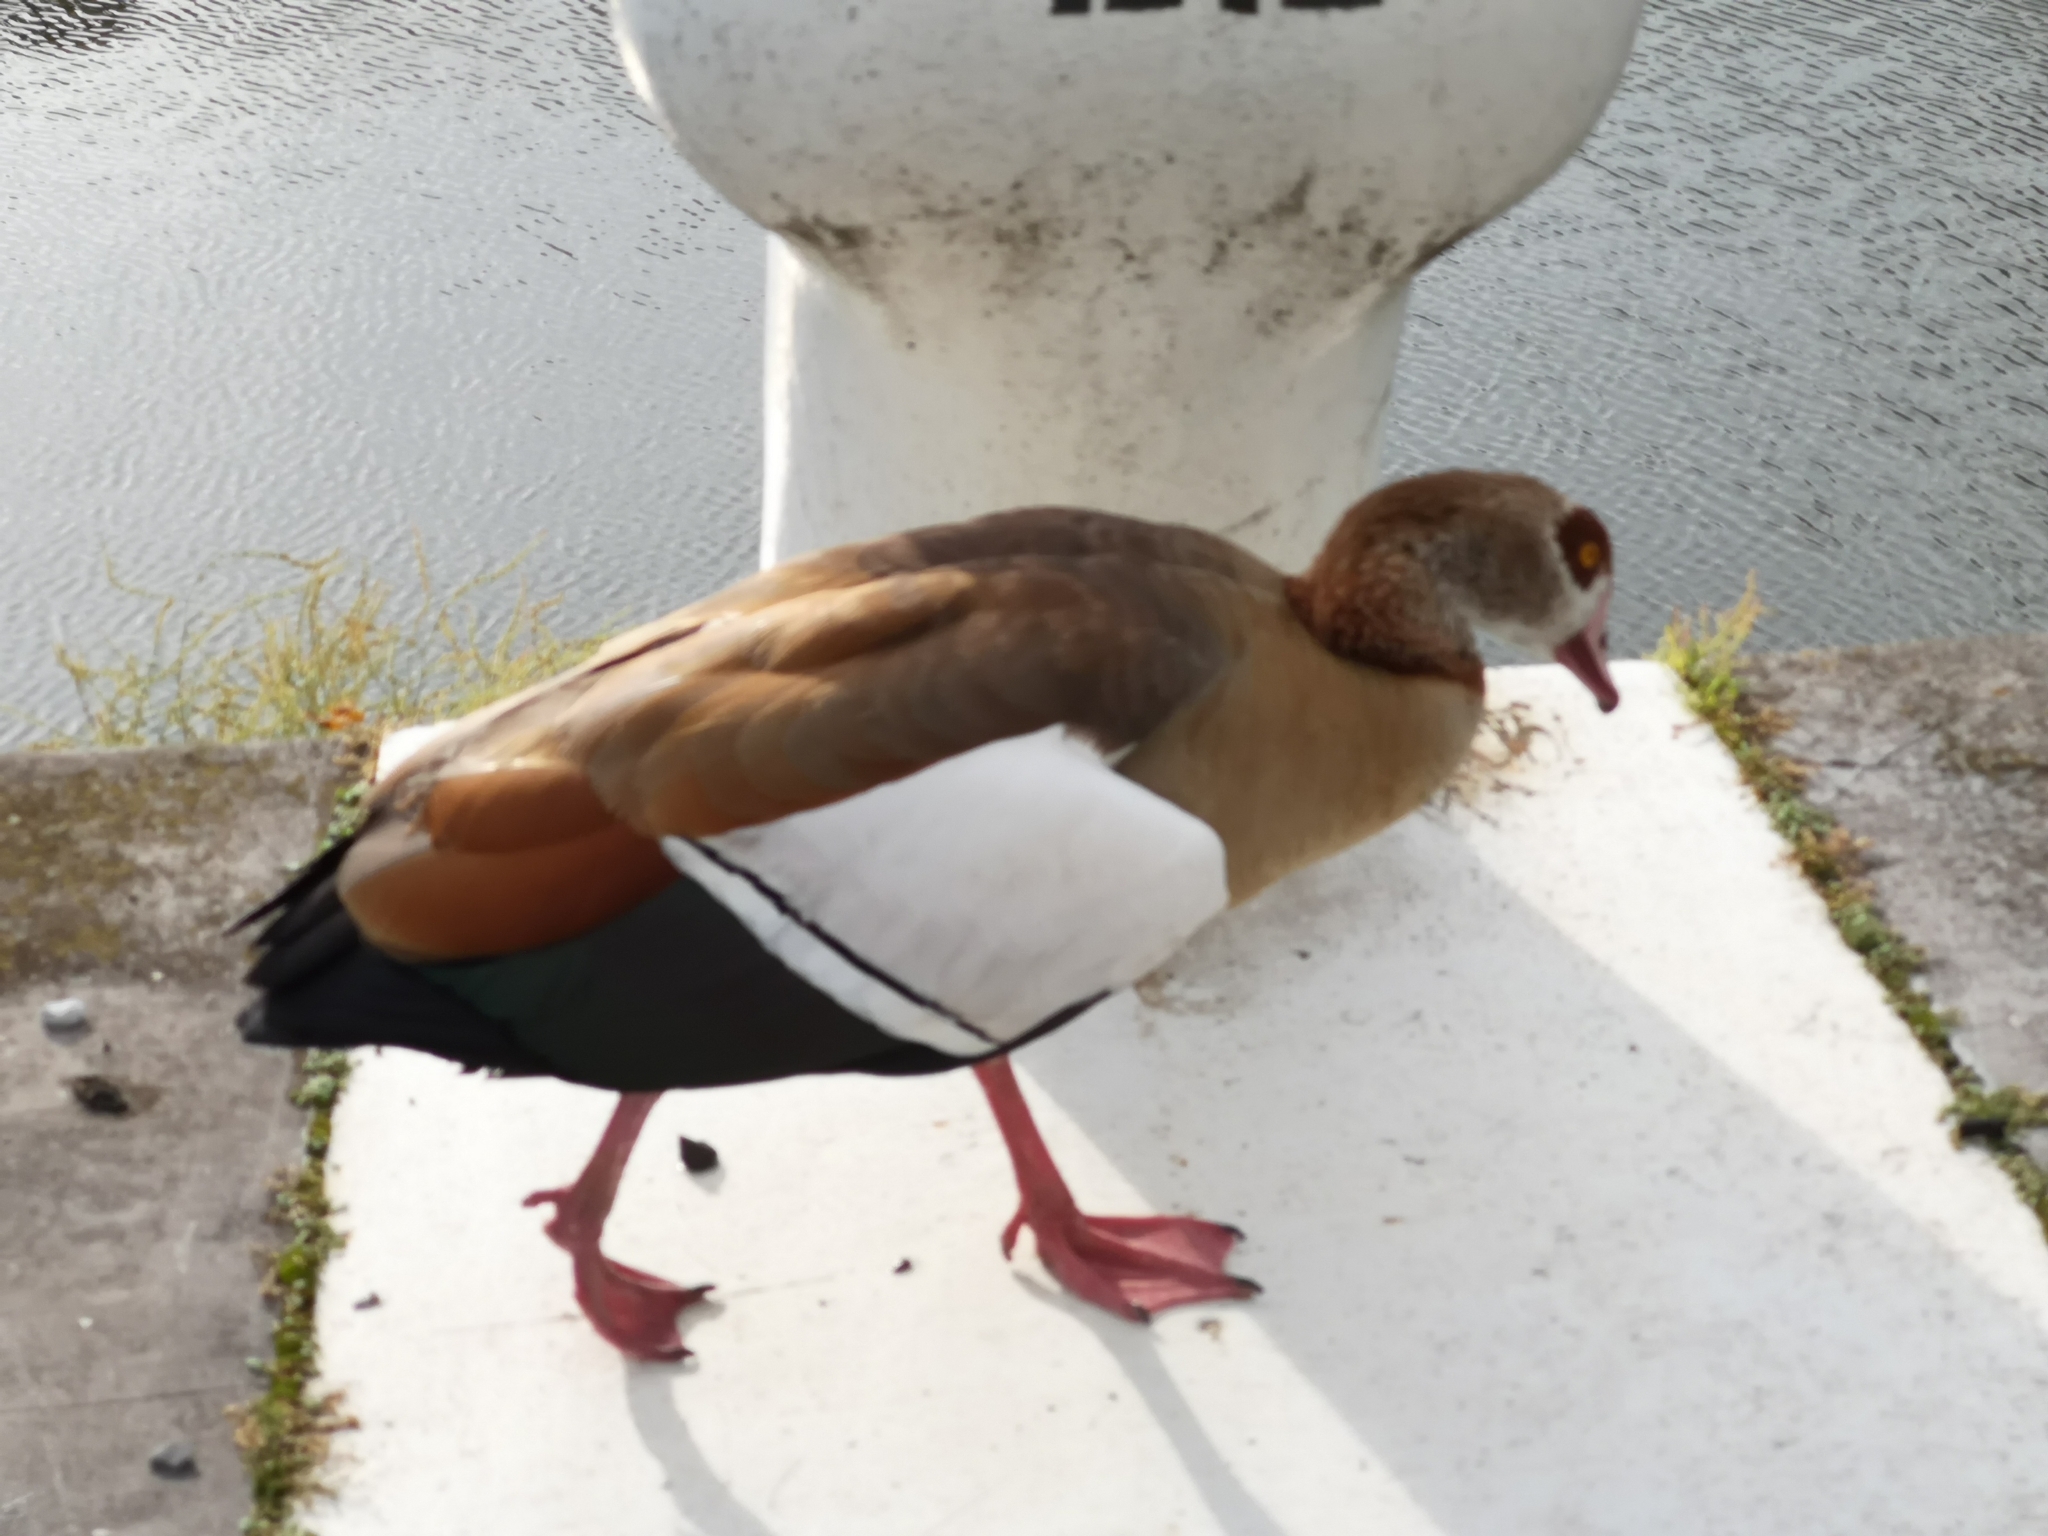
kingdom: Animalia
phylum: Chordata
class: Aves
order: Anseriformes
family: Anatidae
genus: Alopochen
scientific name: Alopochen aegyptiaca
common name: Egyptian goose
